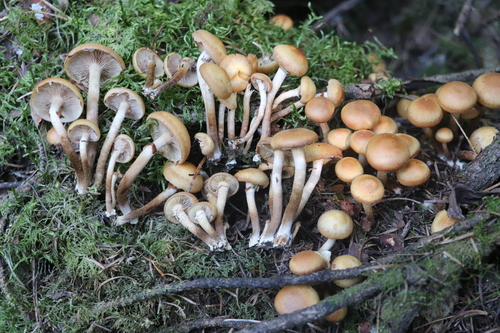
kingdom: Fungi
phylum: Basidiomycota
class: Agaricomycetes
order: Agaricales
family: Strophariaceae
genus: Kuehneromyces
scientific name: Kuehneromyces mutabilis
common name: Sheathed woodtuft
